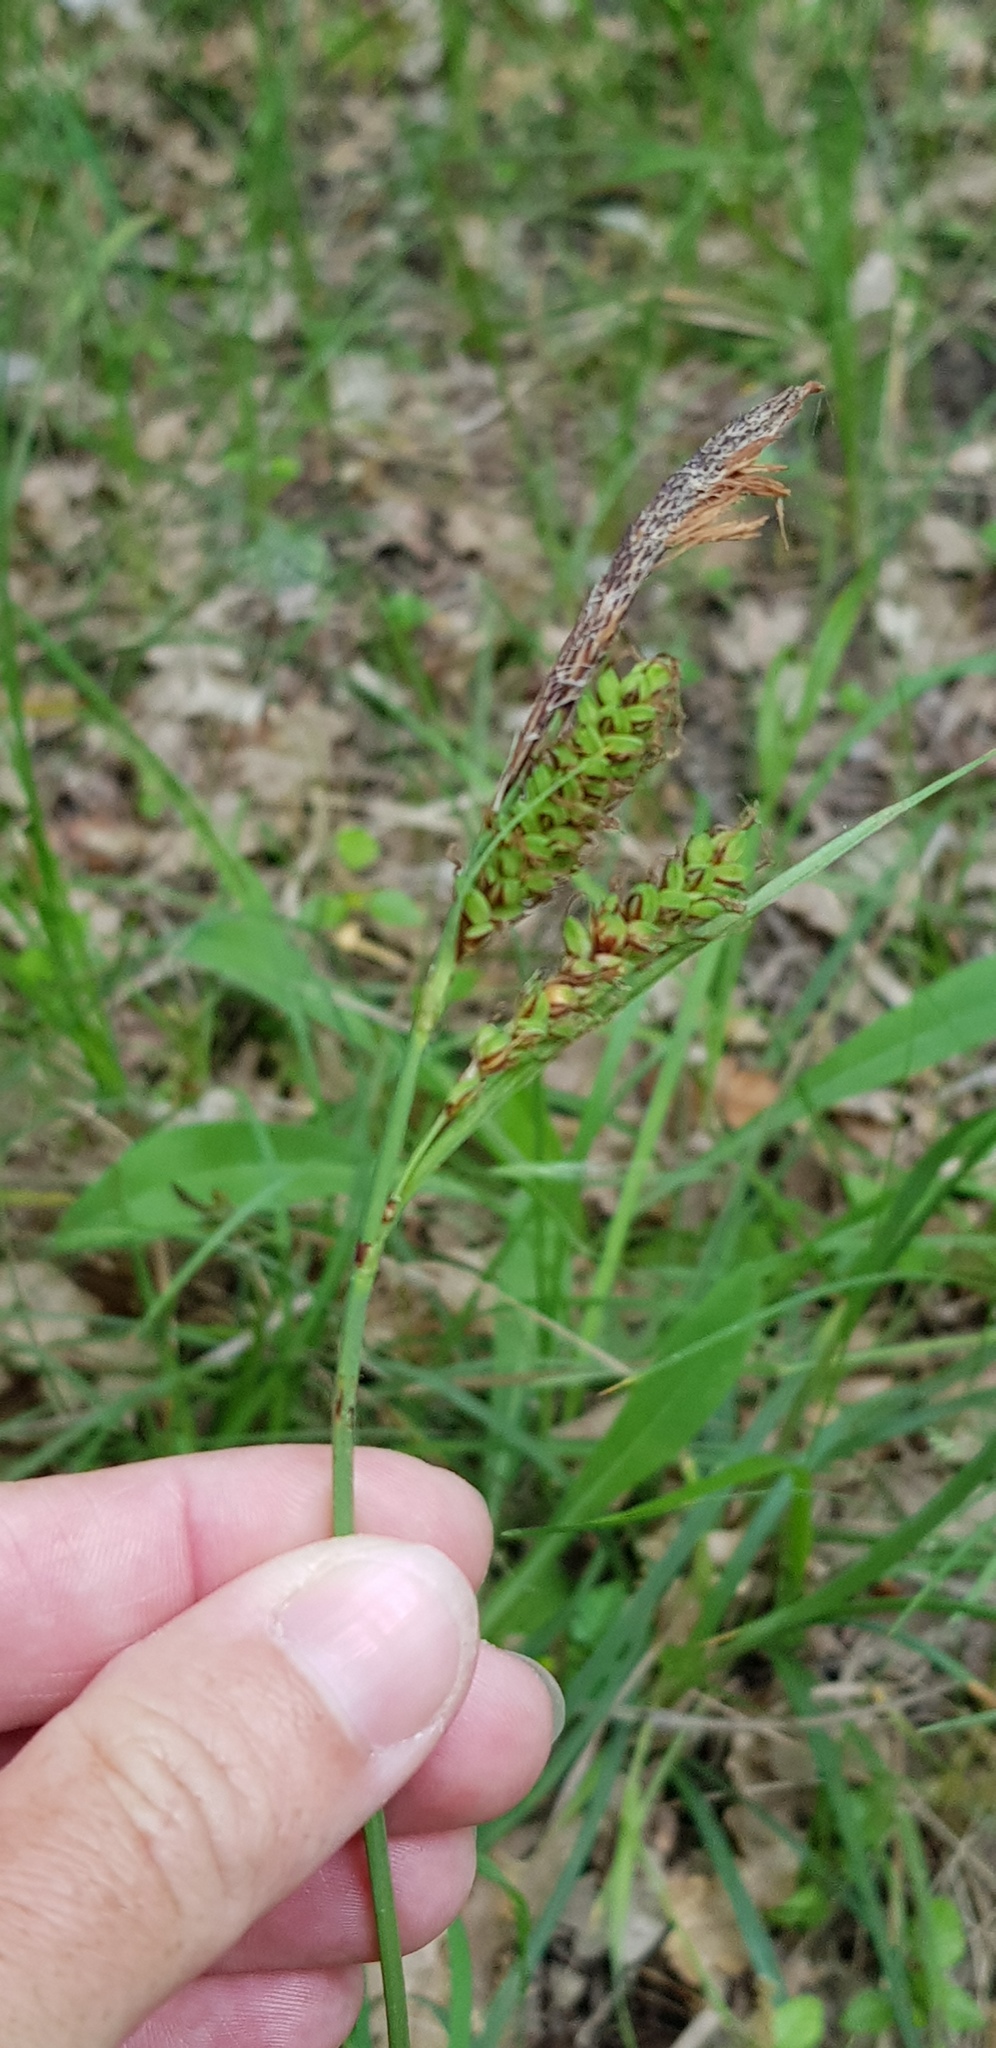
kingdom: Plantae
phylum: Tracheophyta
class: Liliopsida
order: Poales
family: Cyperaceae
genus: Carex
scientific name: Carex flacca
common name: Glaucous sedge
